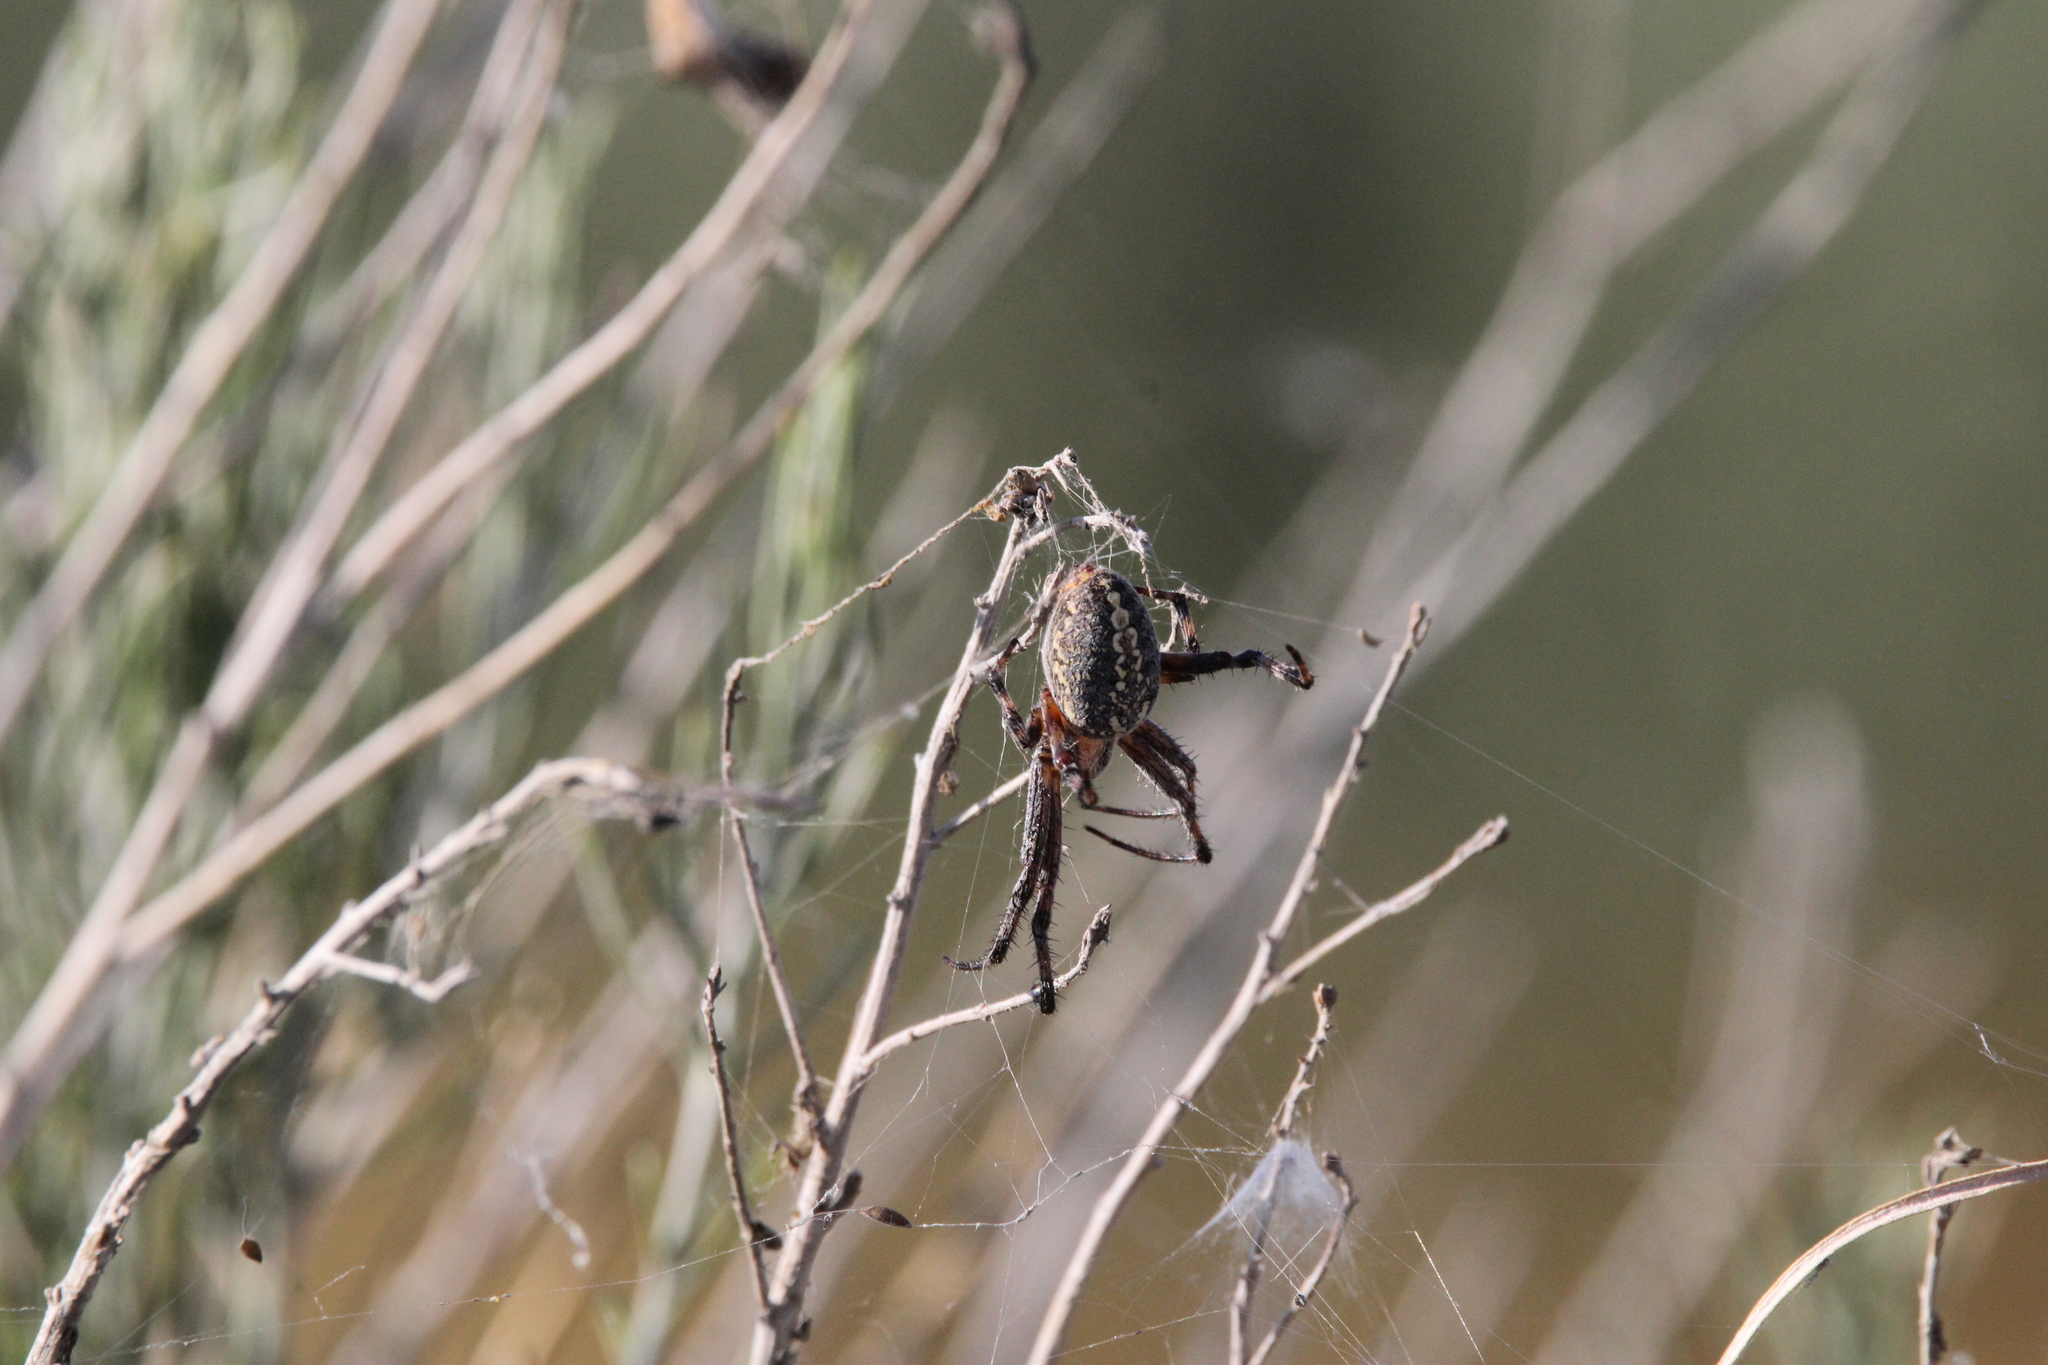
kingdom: Animalia
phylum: Arthropoda
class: Arachnida
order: Araneae
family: Araneidae
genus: Neoscona
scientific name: Neoscona oaxacensis
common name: Orb weavers
